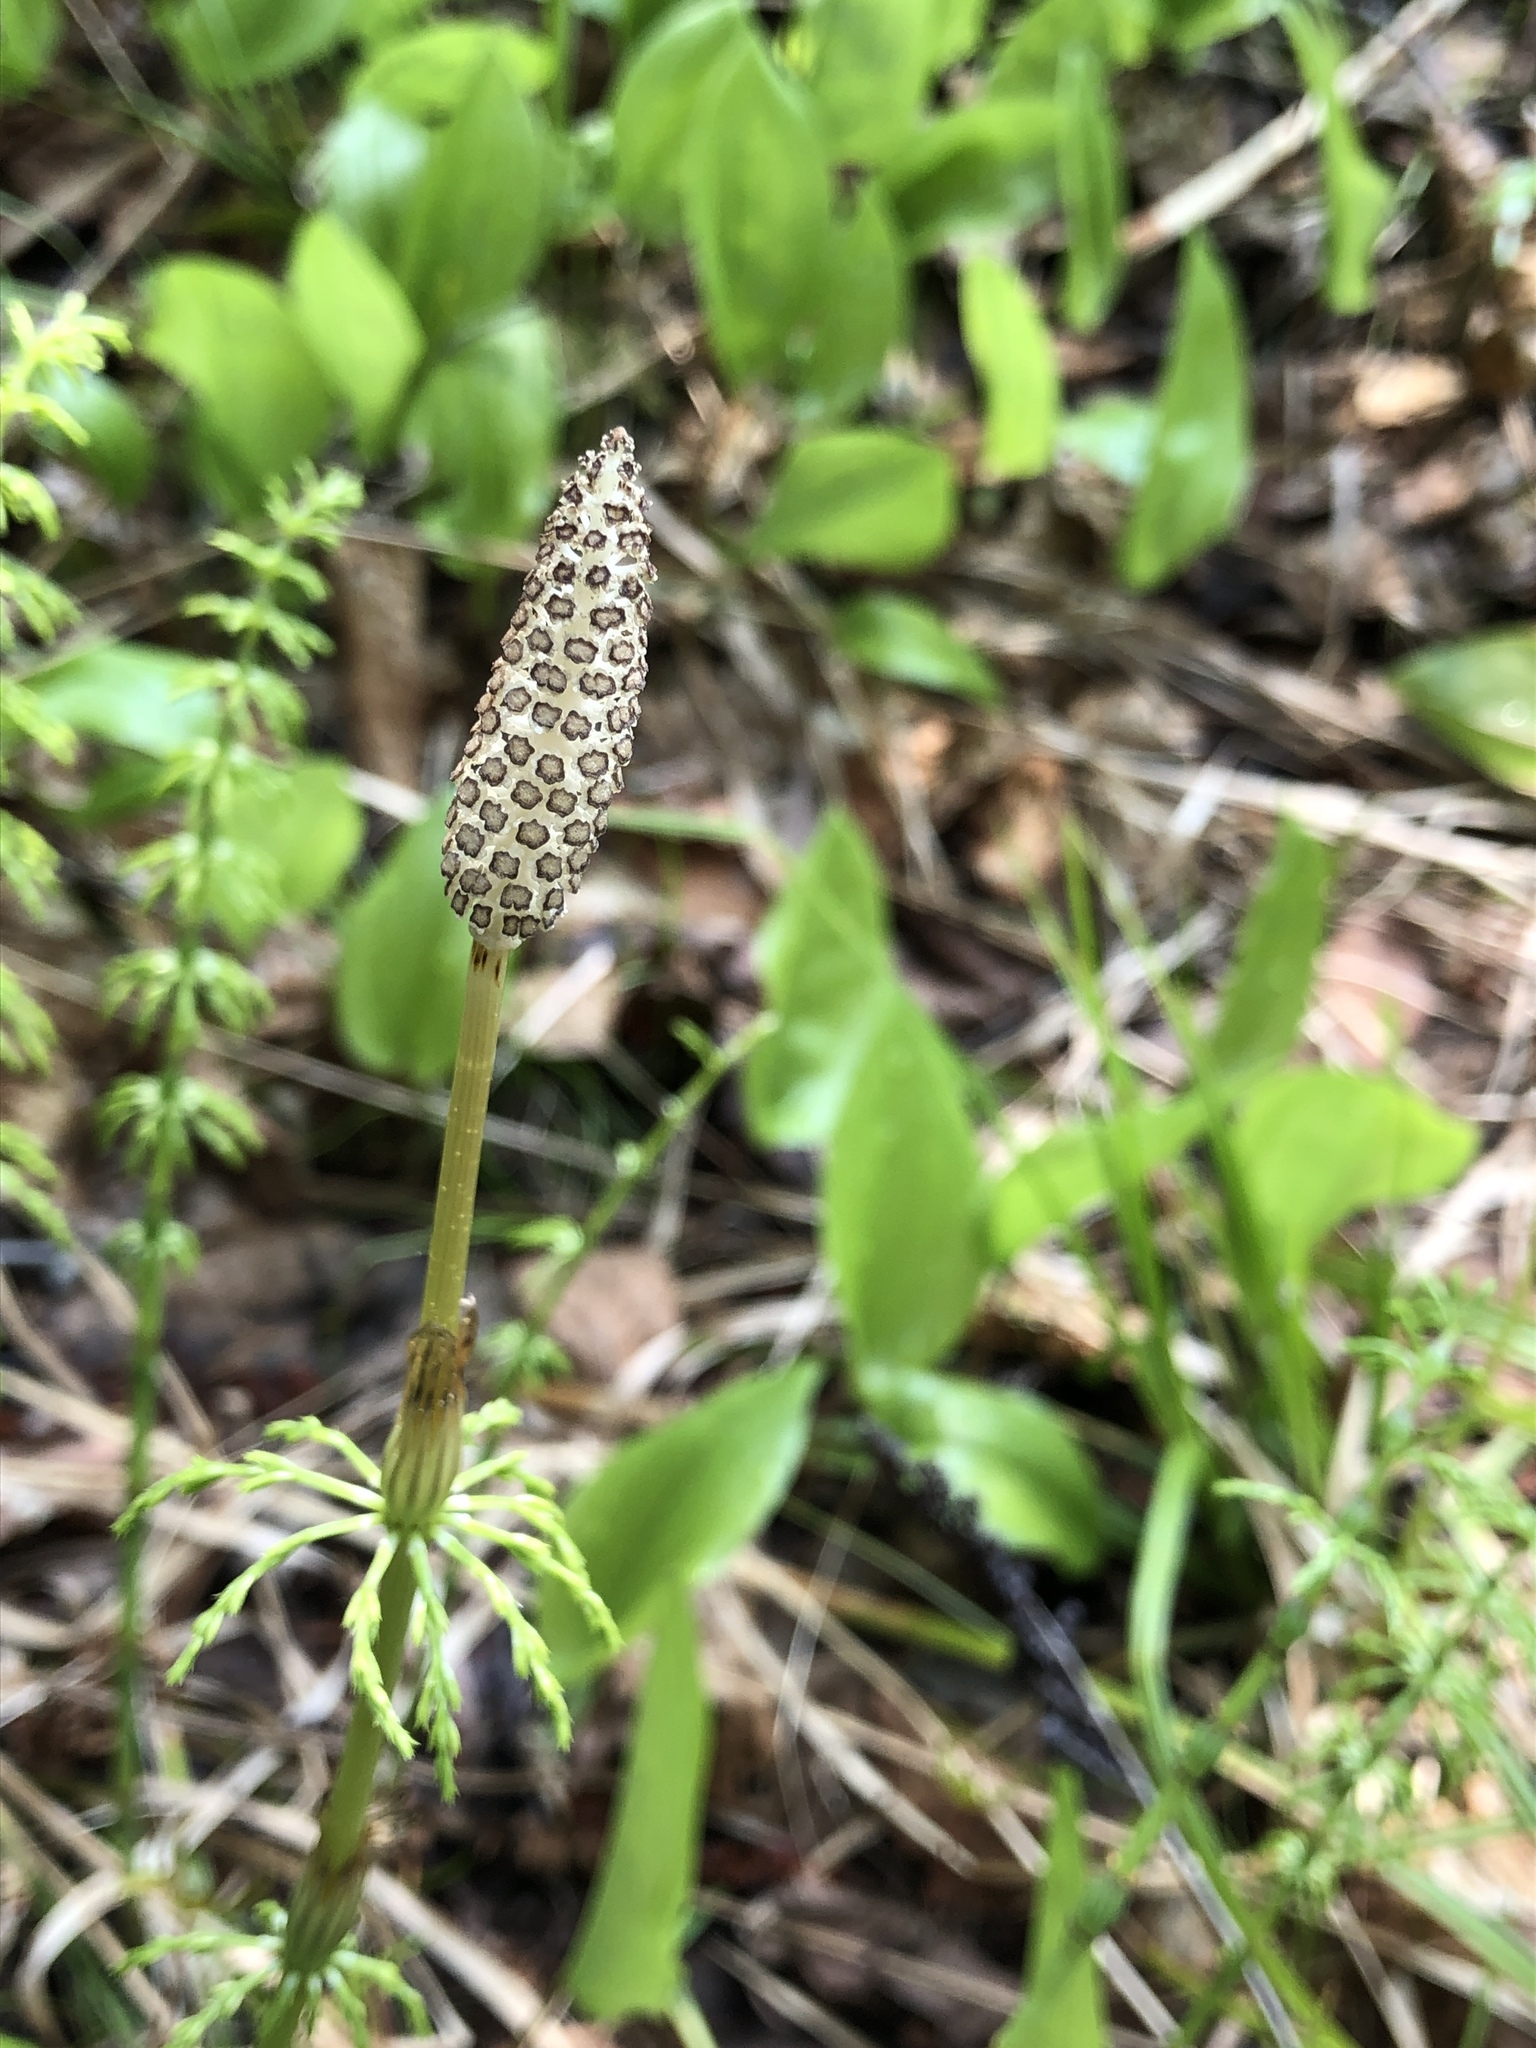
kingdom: Plantae
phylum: Tracheophyta
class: Polypodiopsida
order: Equisetales
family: Equisetaceae
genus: Equisetum
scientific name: Equisetum sylvaticum
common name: Wood horsetail
